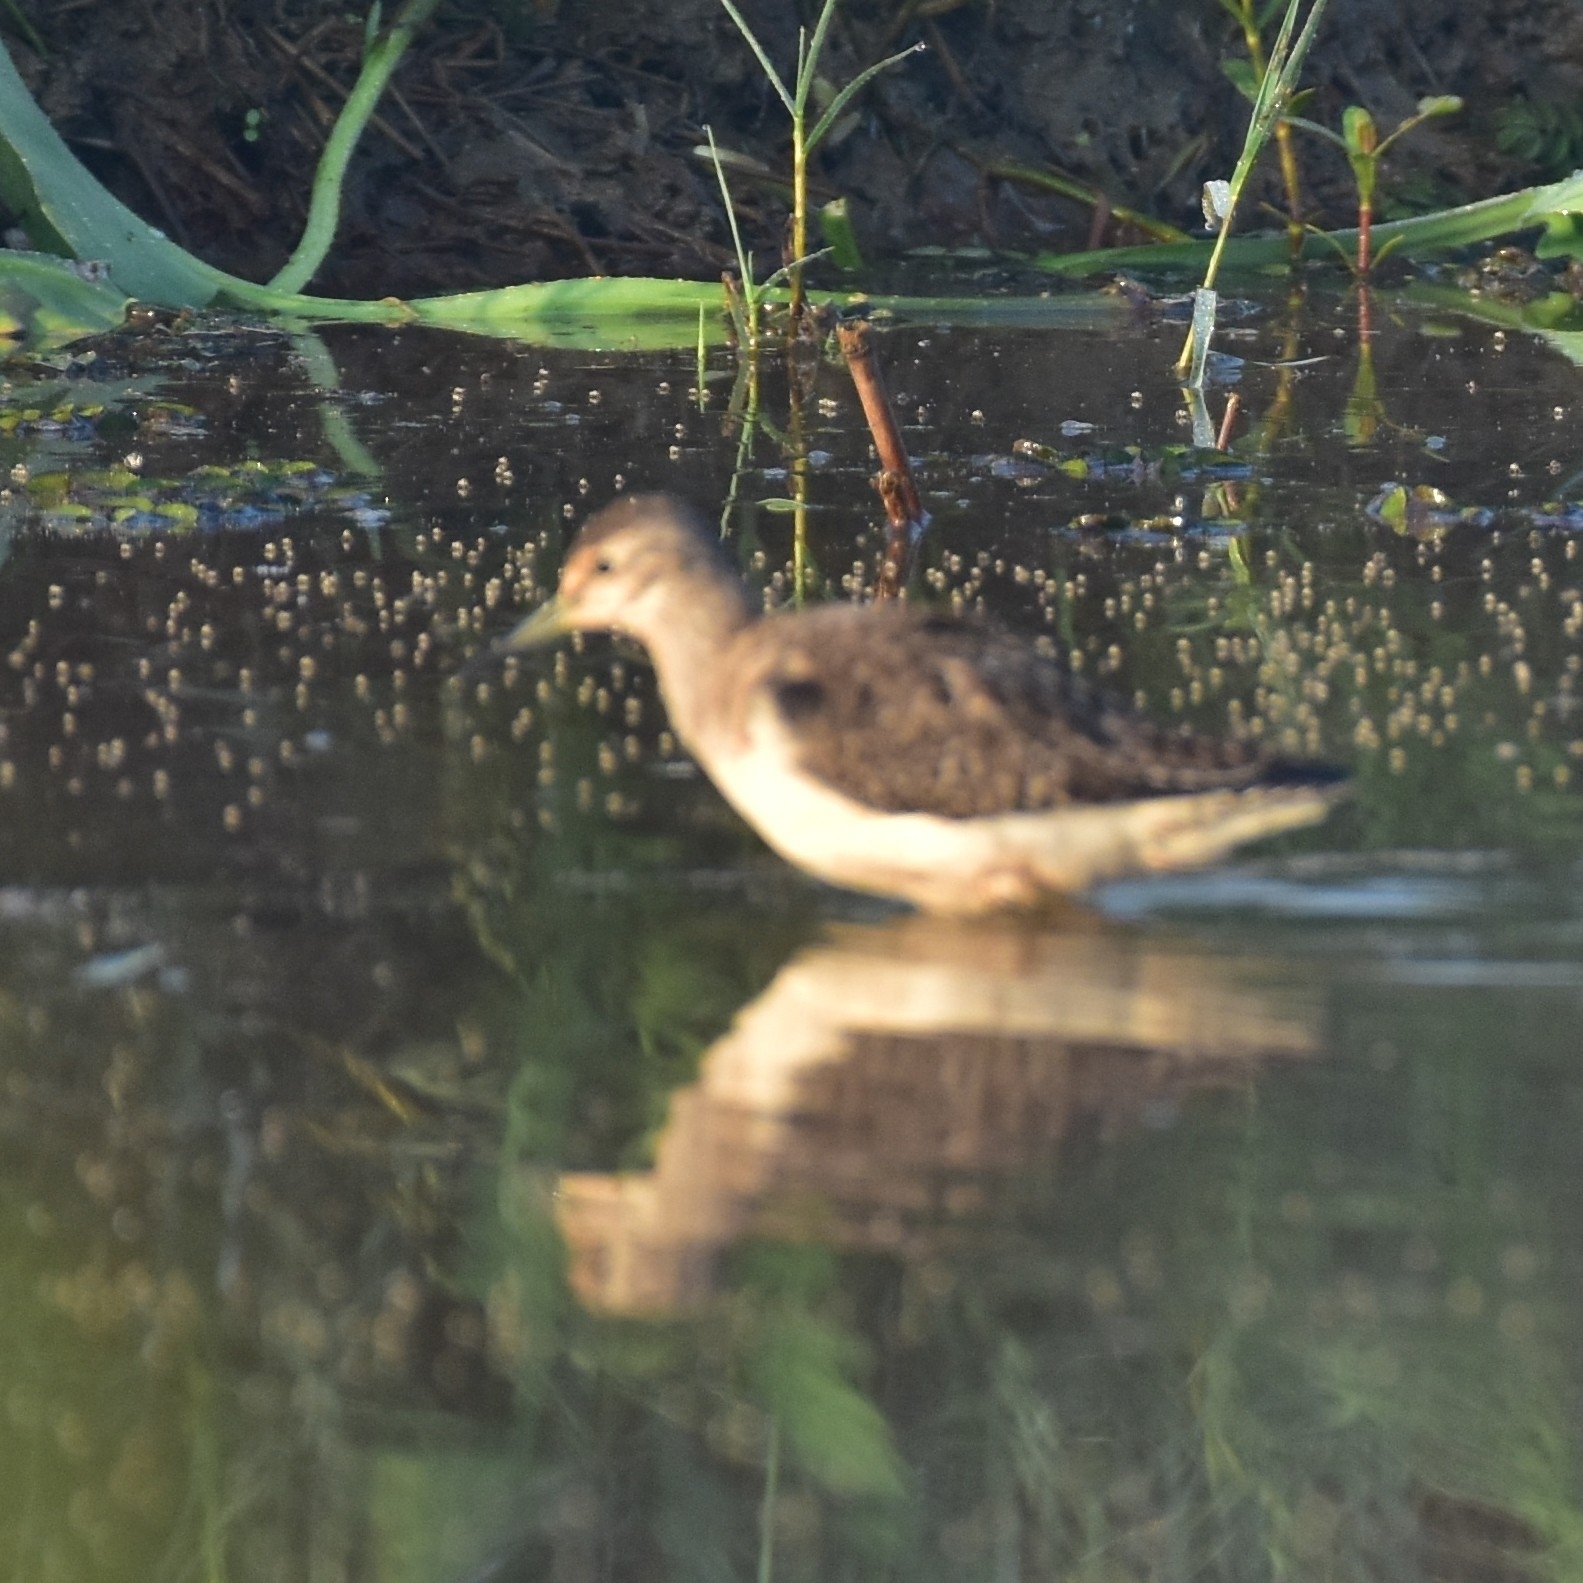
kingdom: Animalia
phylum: Chordata
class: Aves
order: Charadriiformes
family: Scolopacidae
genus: Tringa
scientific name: Tringa glareola
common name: Wood sandpiper
